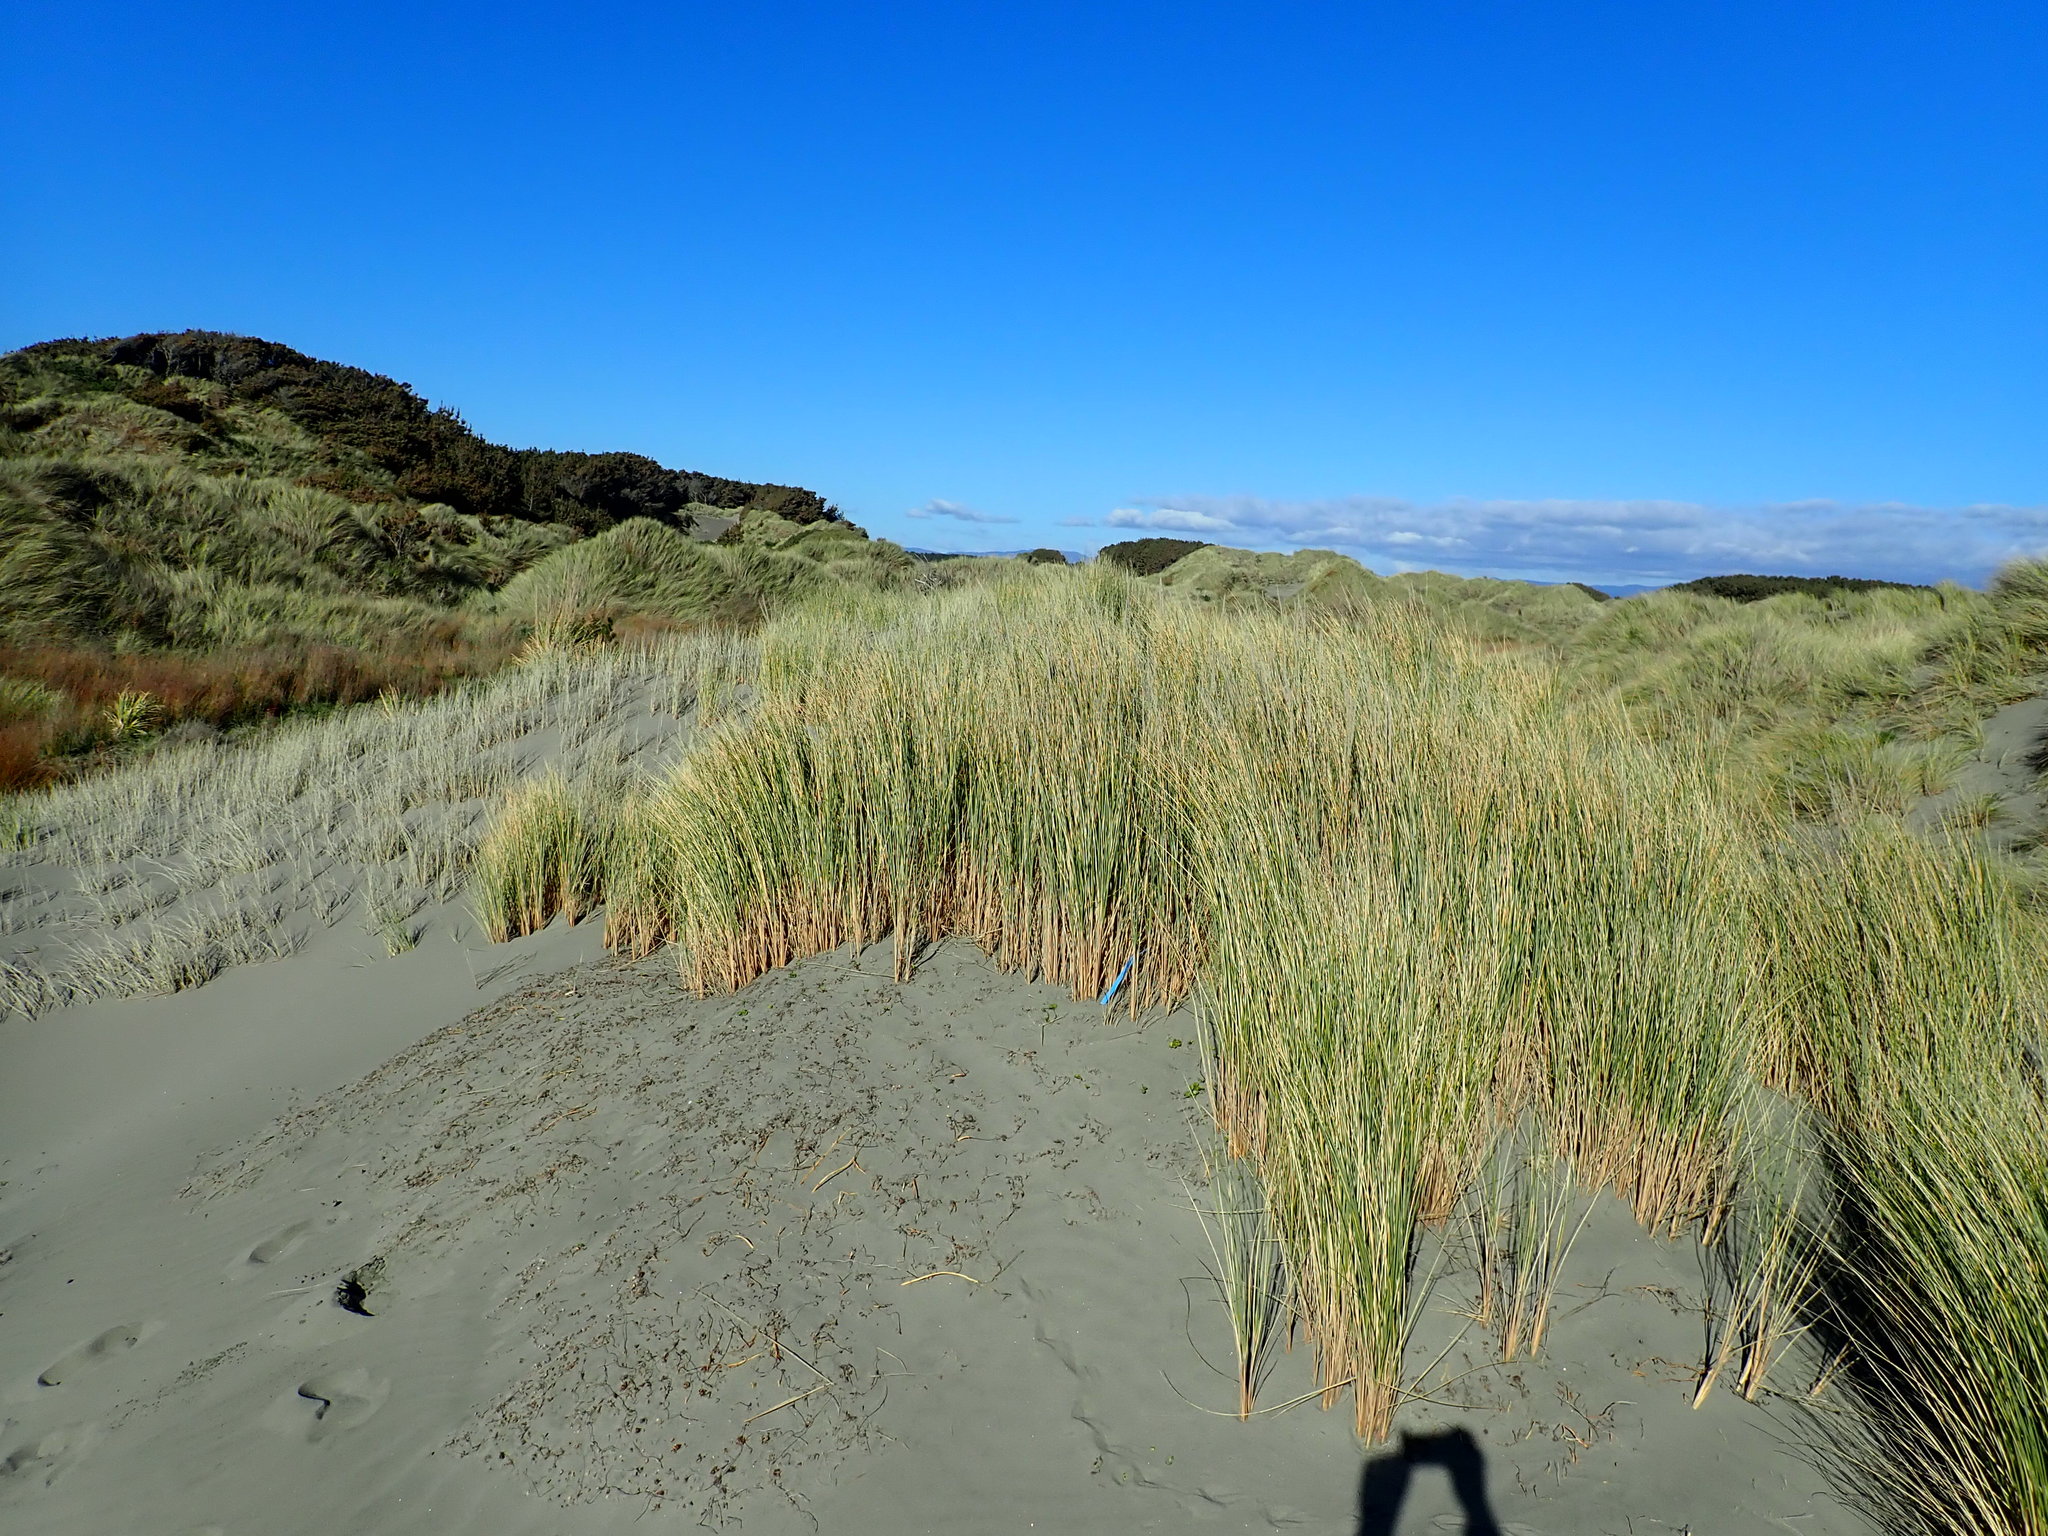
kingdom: Plantae
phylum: Tracheophyta
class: Liliopsida
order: Poales
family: Poaceae
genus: Calamagrostis
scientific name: Calamagrostis arenaria
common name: European beachgrass
